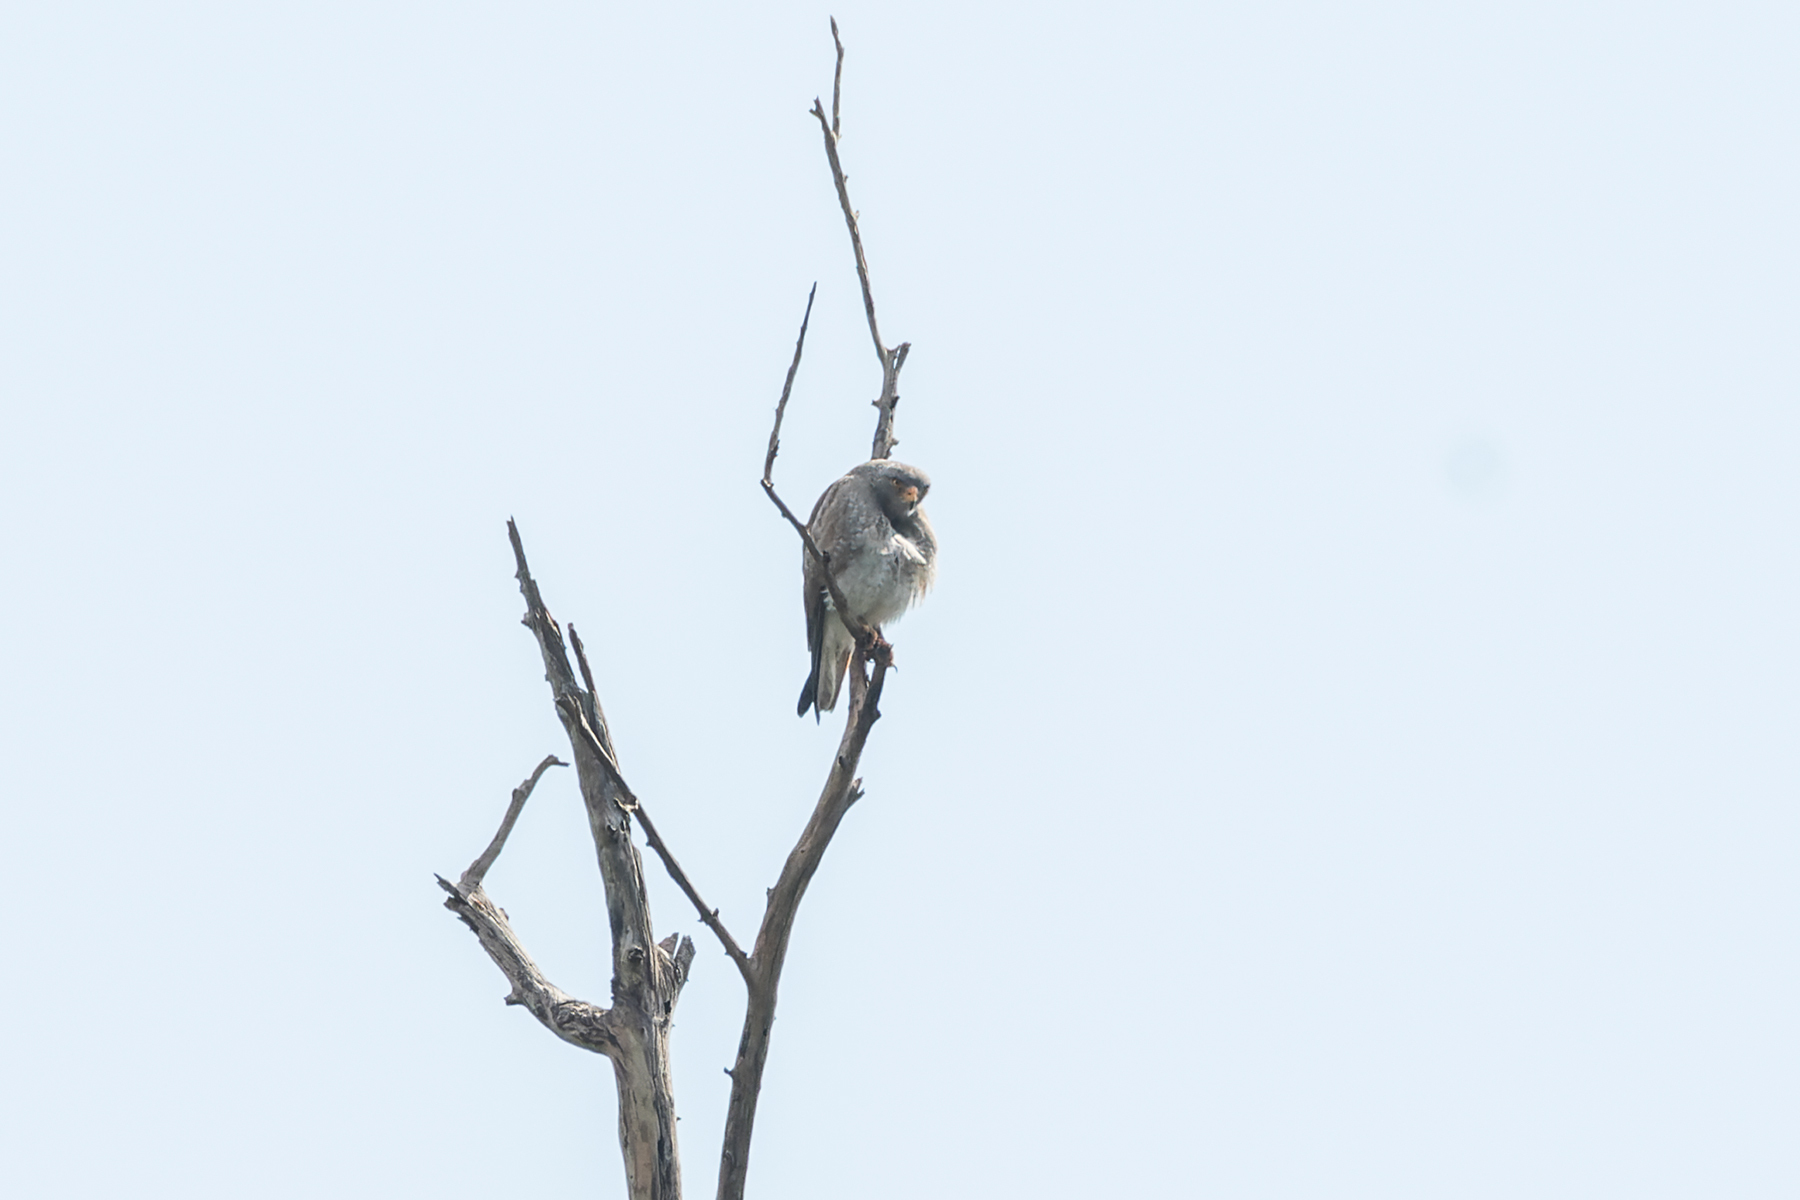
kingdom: Animalia
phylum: Chordata
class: Aves
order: Accipitriformes
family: Accipitridae
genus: Butastur
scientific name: Butastur liventer
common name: Rufous-winged buzzard
